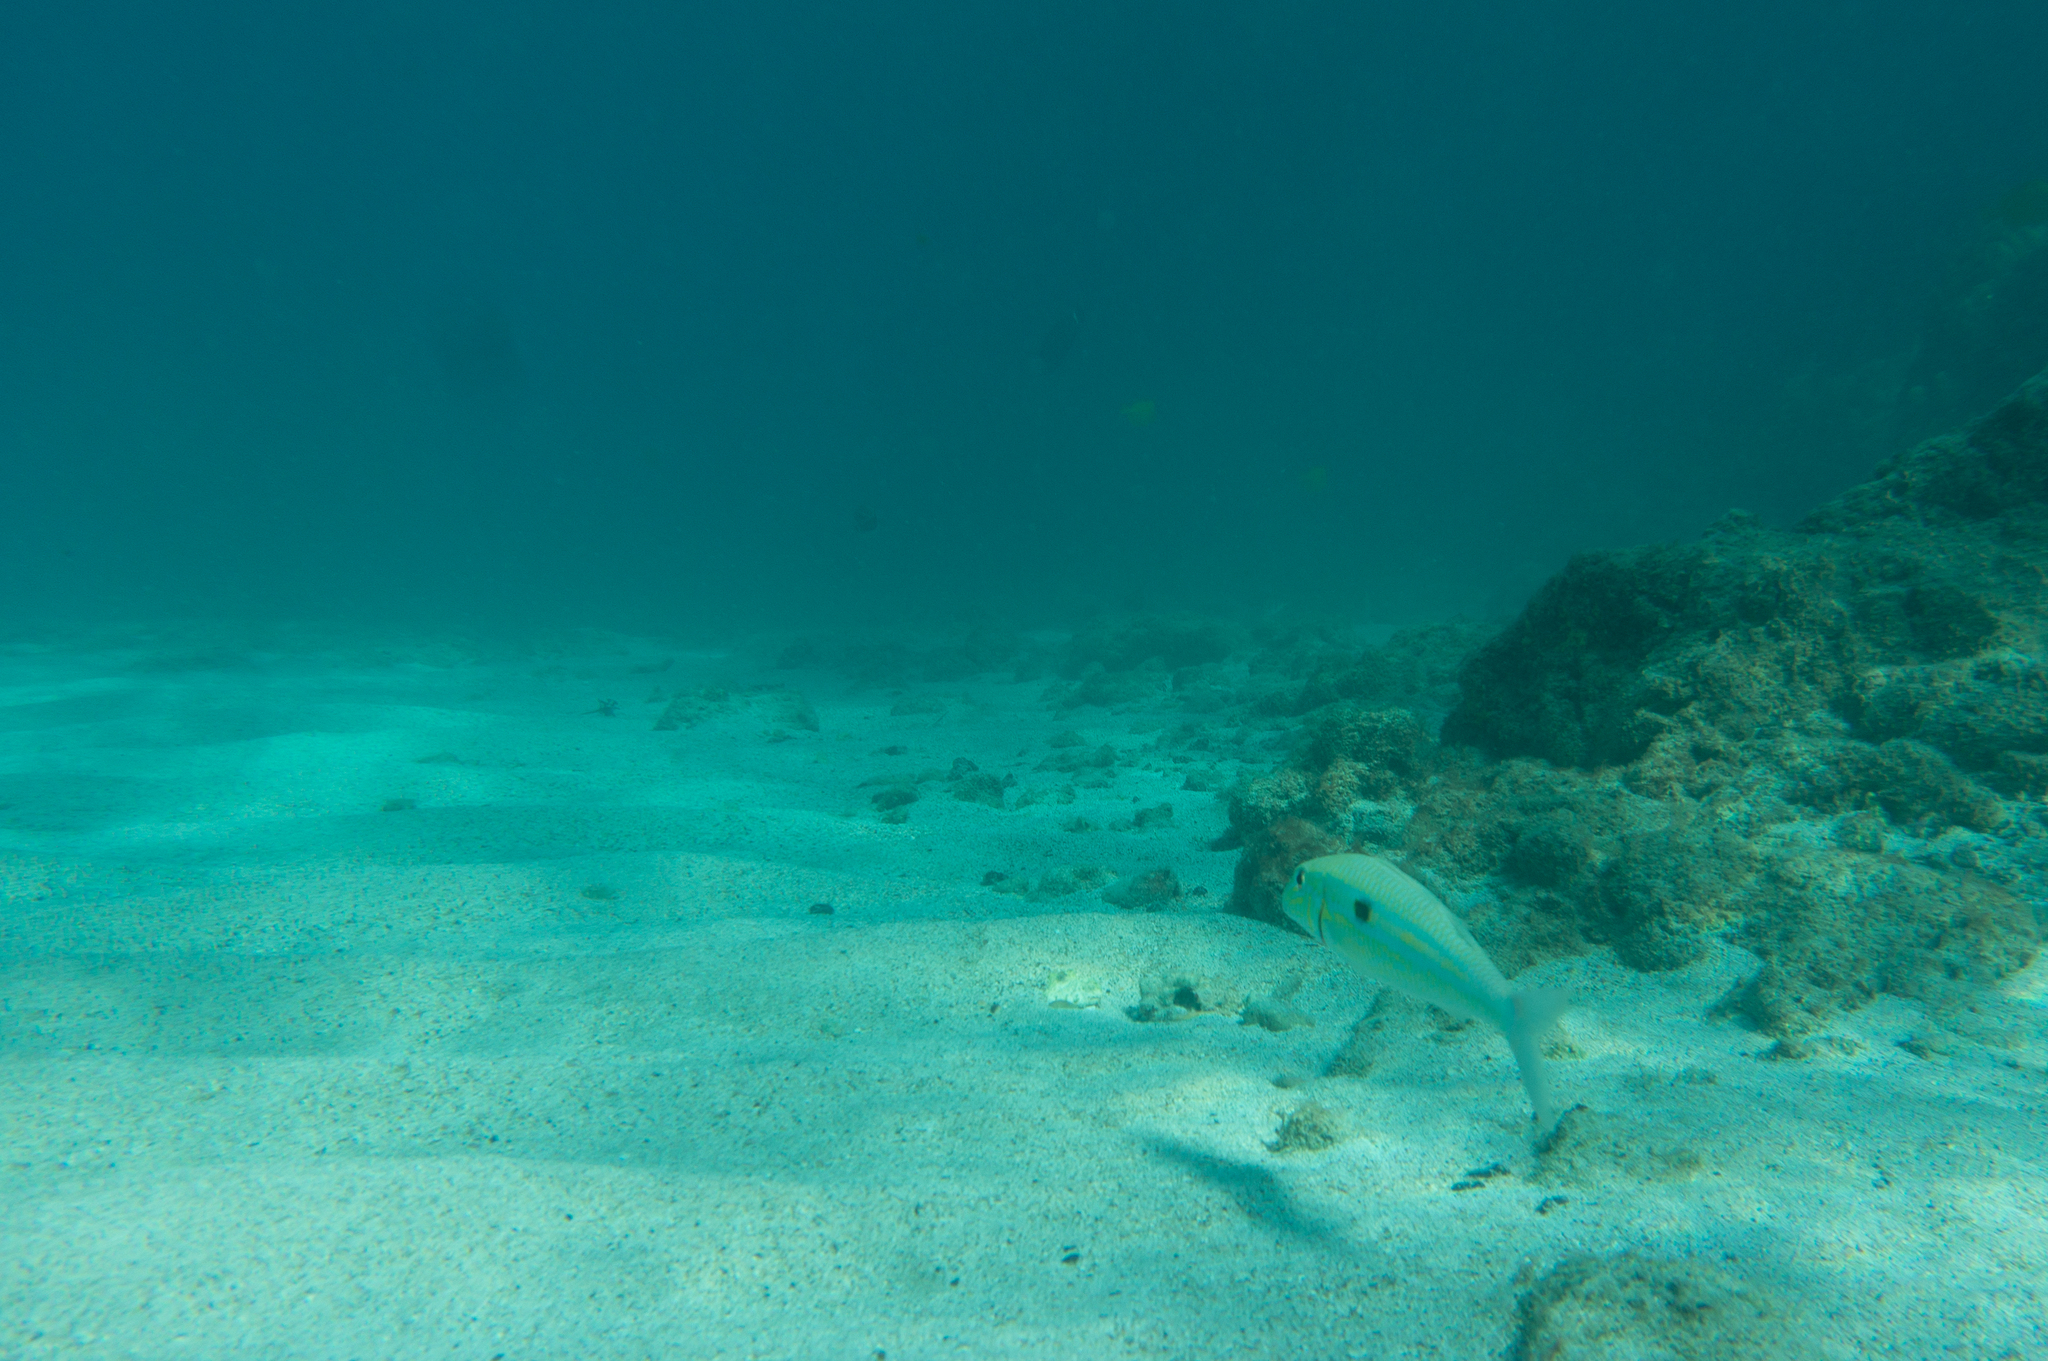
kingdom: Animalia
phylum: Chordata
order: Perciformes
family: Mullidae
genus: Mulloidichthys
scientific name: Mulloidichthys flavolineatus
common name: Yellowstripe goatfish
